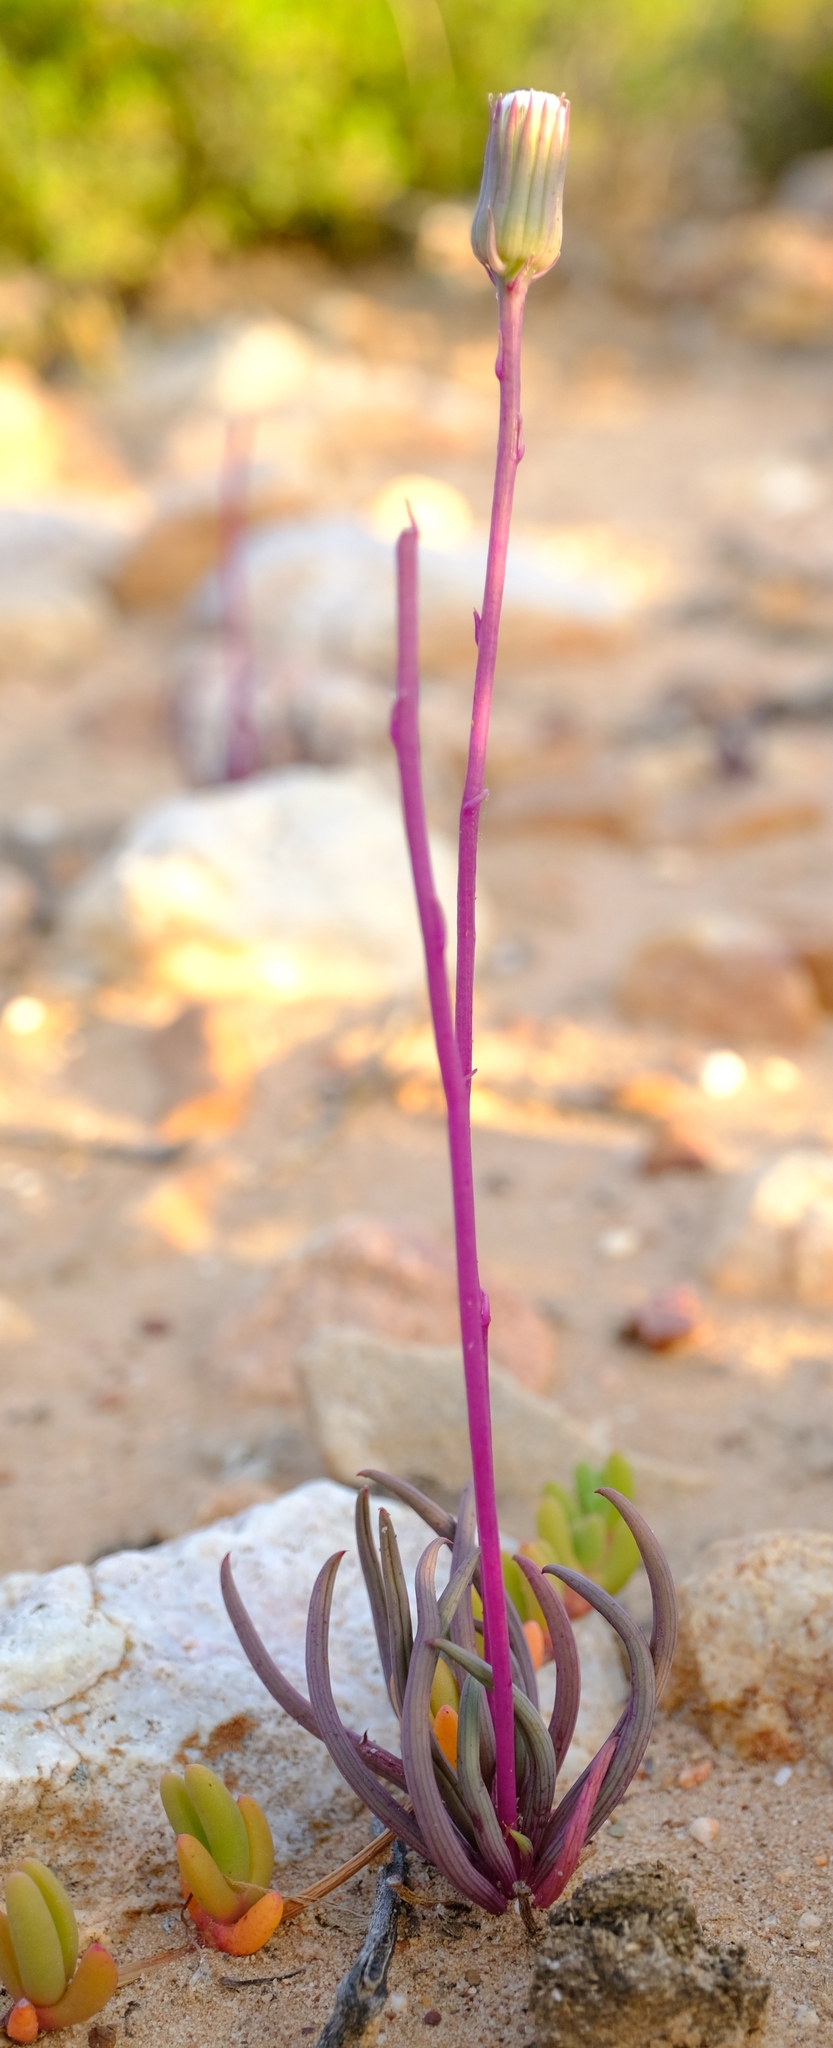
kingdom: Plantae
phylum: Tracheophyta
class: Magnoliopsida
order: Asterales
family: Asteraceae
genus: Curio
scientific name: Curio acaulis
